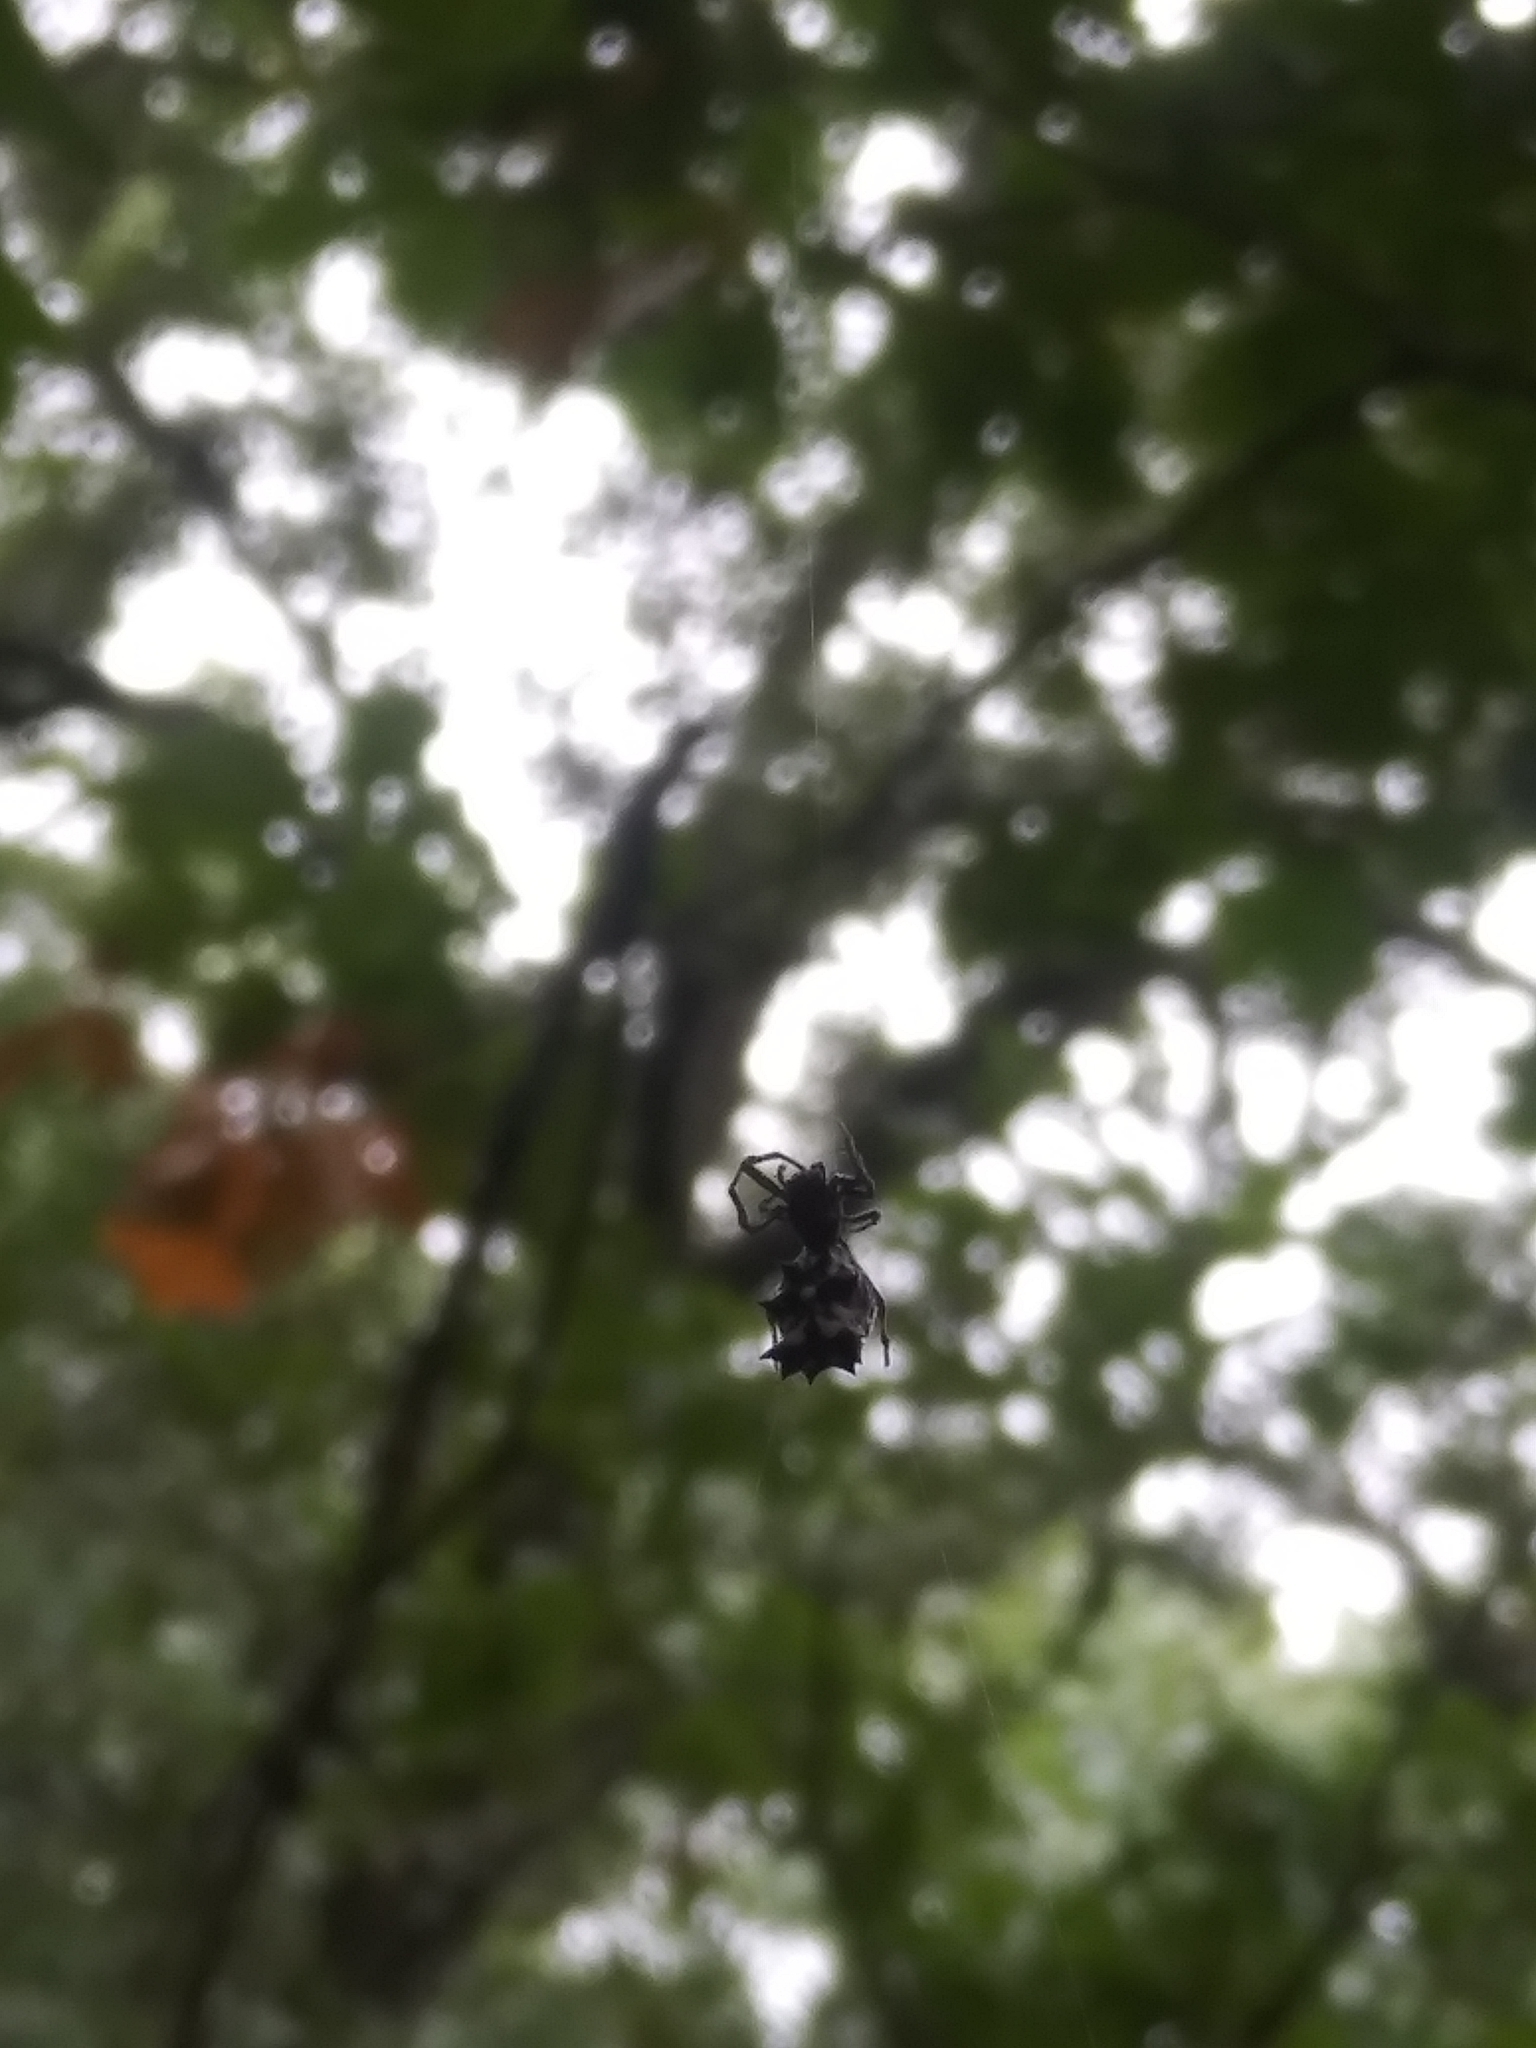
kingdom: Animalia
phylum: Arthropoda
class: Arachnida
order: Araneae
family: Araneidae
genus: Micrathena
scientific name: Micrathena gracilis
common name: Orb weavers
